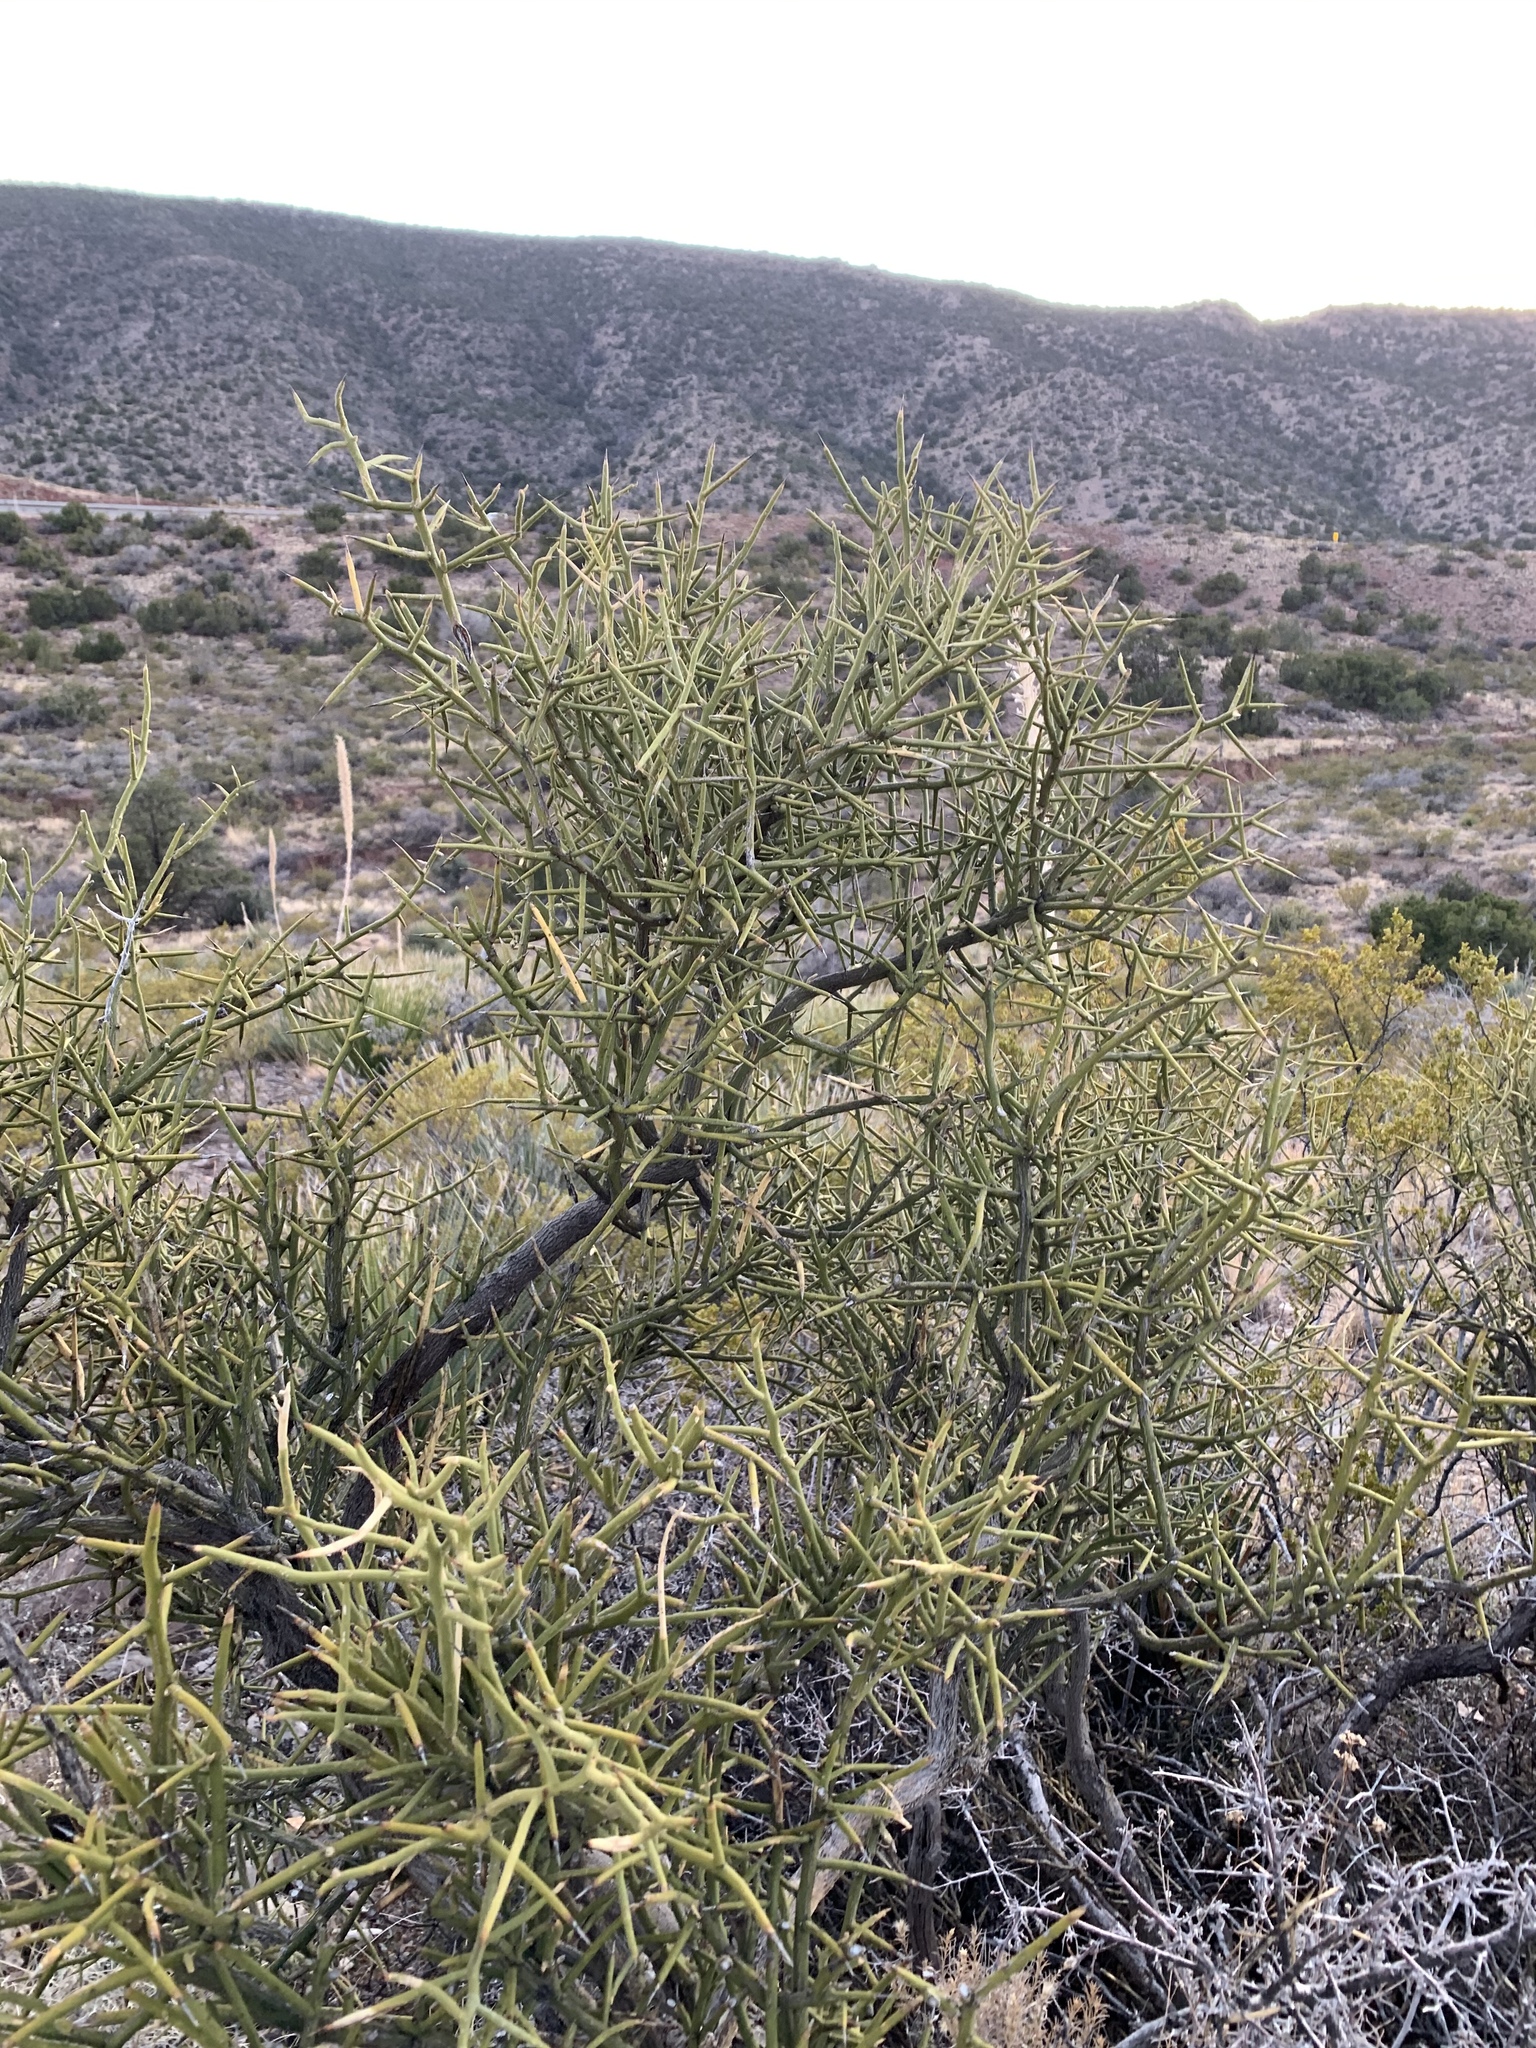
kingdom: Plantae
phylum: Tracheophyta
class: Magnoliopsida
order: Brassicales
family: Koeberliniaceae
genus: Koeberlinia
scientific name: Koeberlinia spinosa
